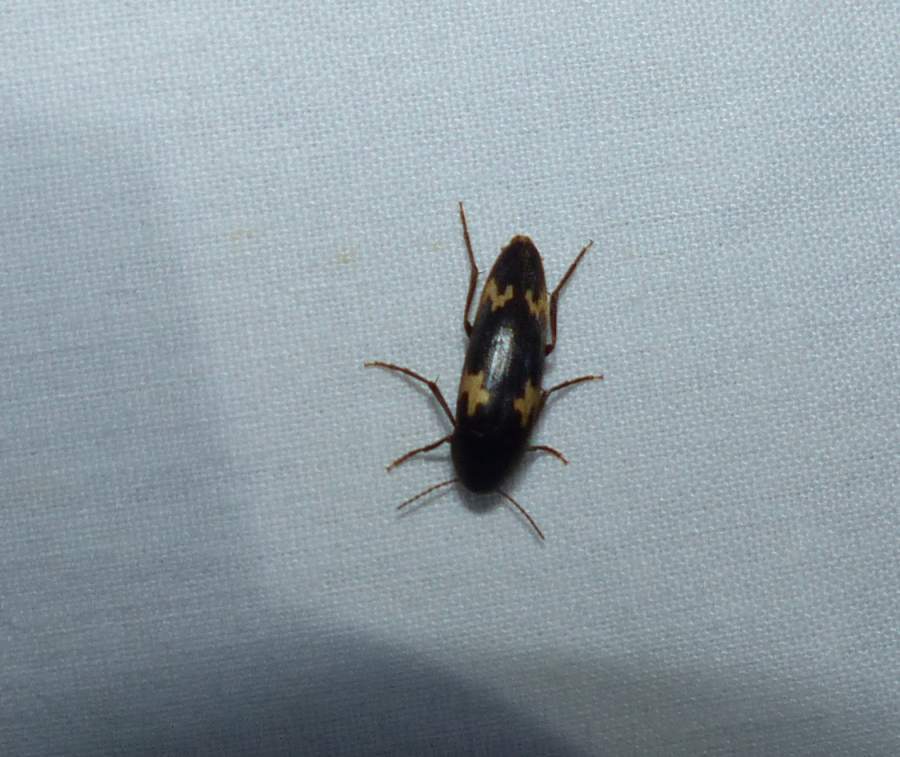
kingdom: Animalia
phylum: Arthropoda
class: Insecta
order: Coleoptera
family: Melandryidae
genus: Dircaea
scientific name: Dircaea liturata
